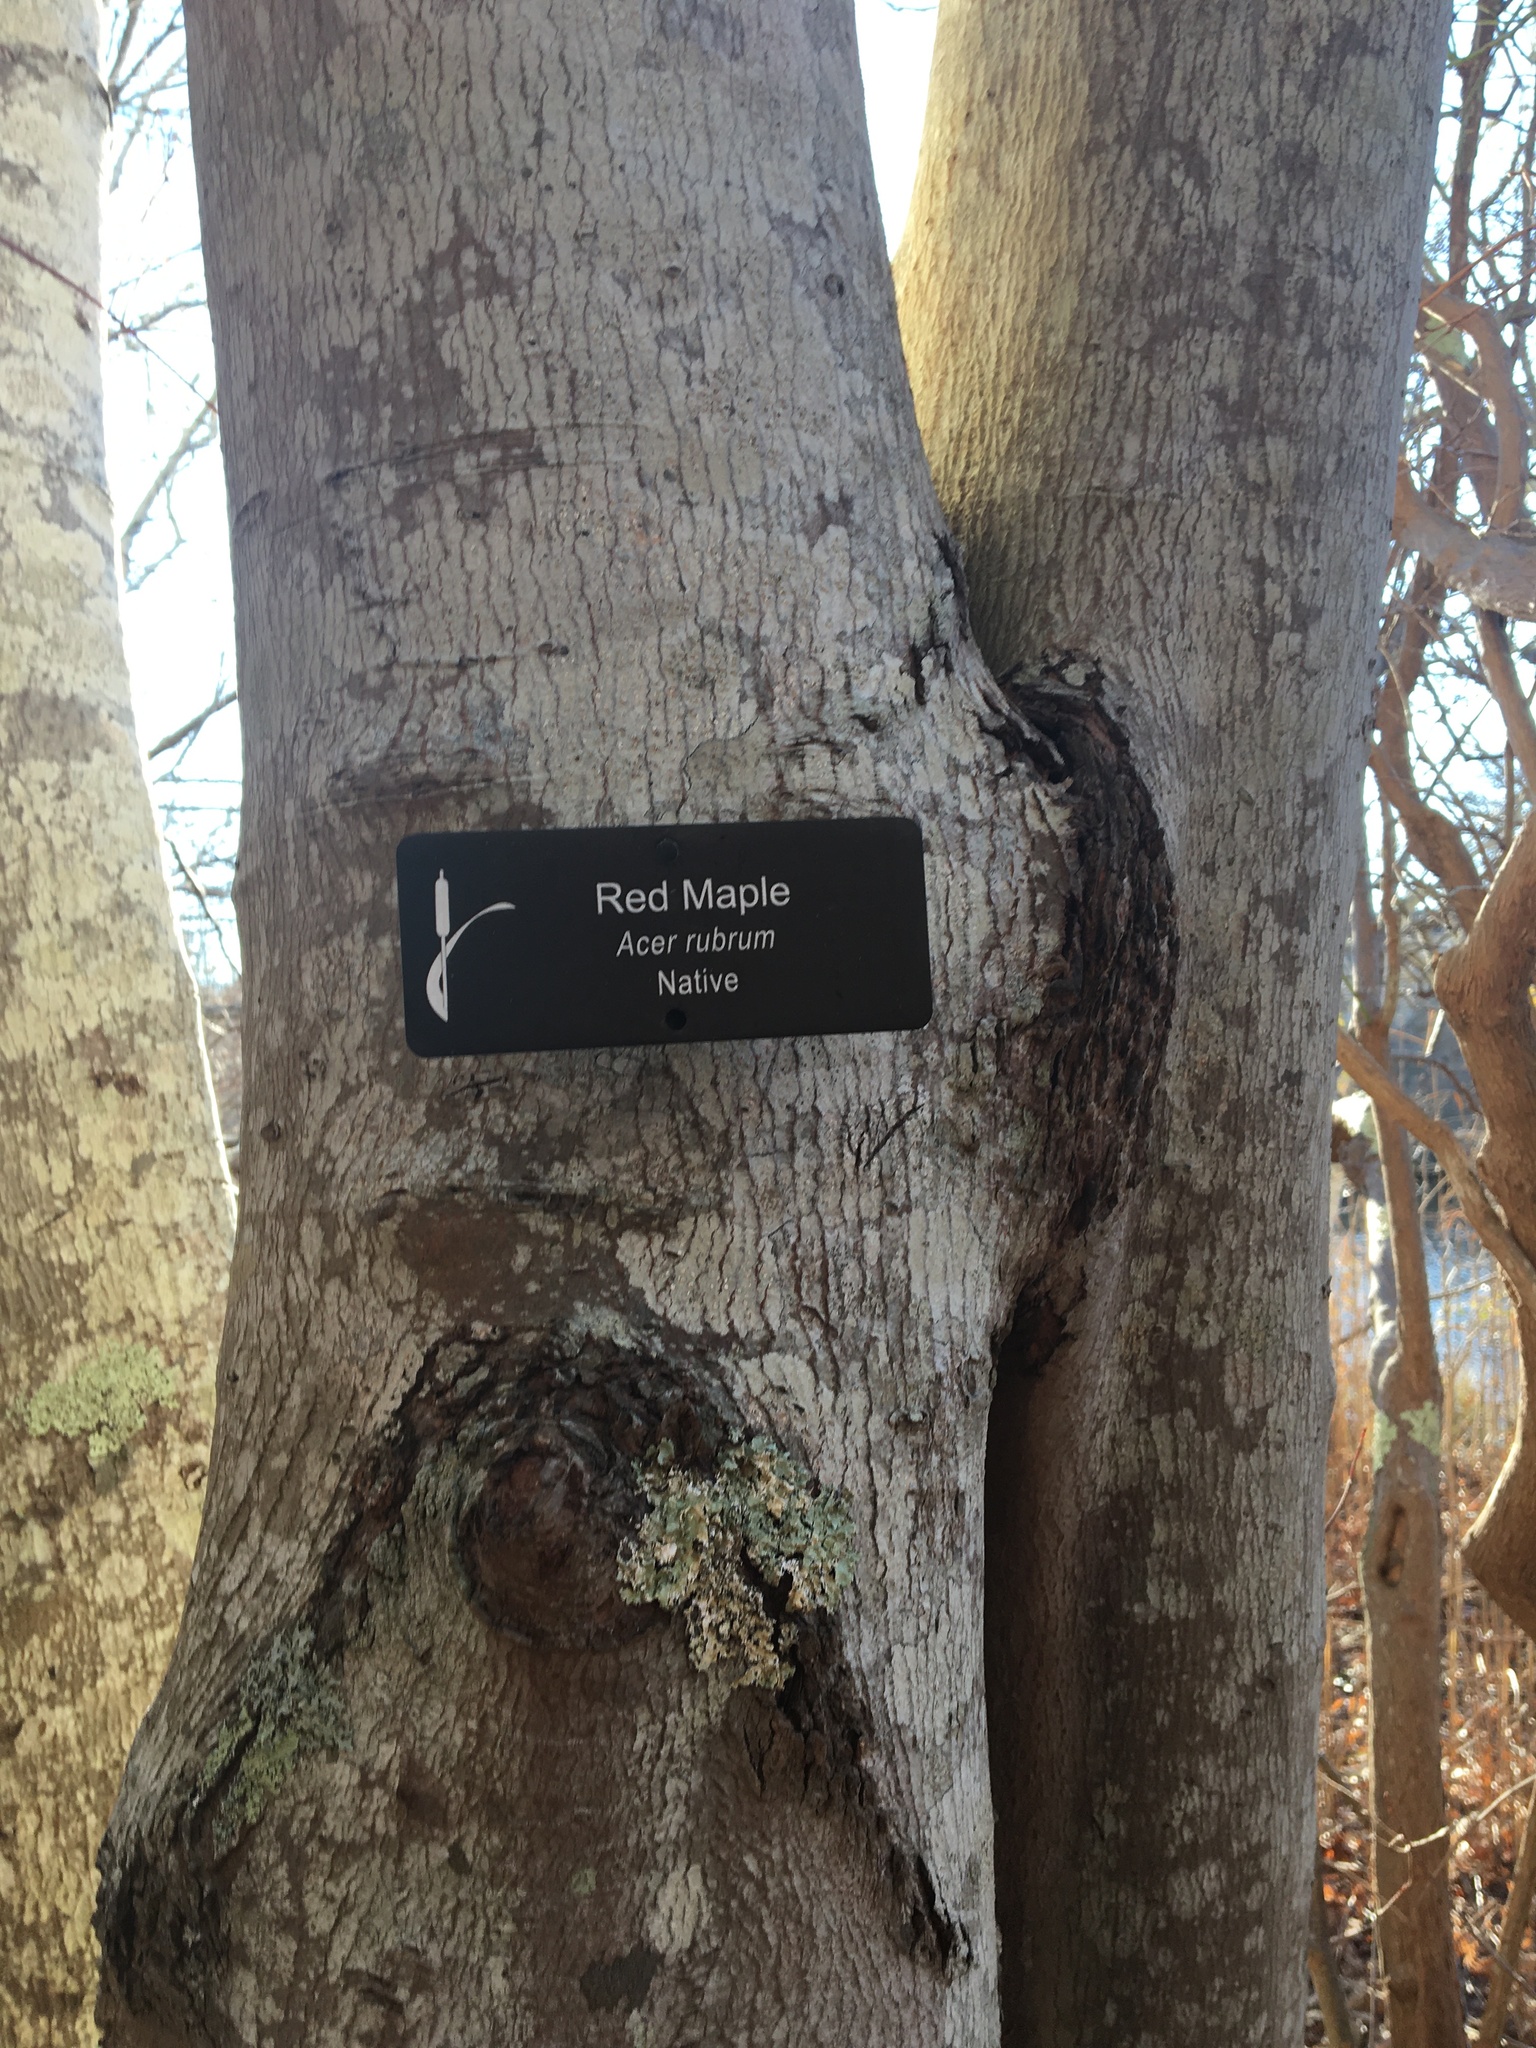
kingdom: Plantae
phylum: Tracheophyta
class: Magnoliopsida
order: Sapindales
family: Sapindaceae
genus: Acer
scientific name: Acer rubrum
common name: Red maple
